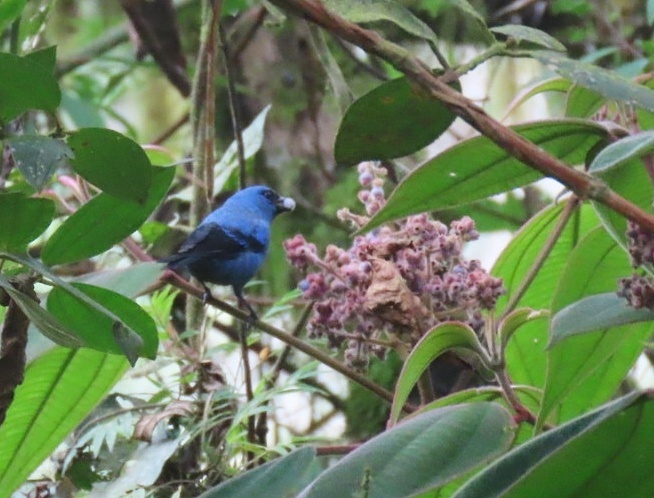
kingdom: Animalia
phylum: Chordata
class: Aves
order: Passeriformes
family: Thraupidae
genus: Tangara
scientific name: Tangara vassorii
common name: Blue-and-black tanager
